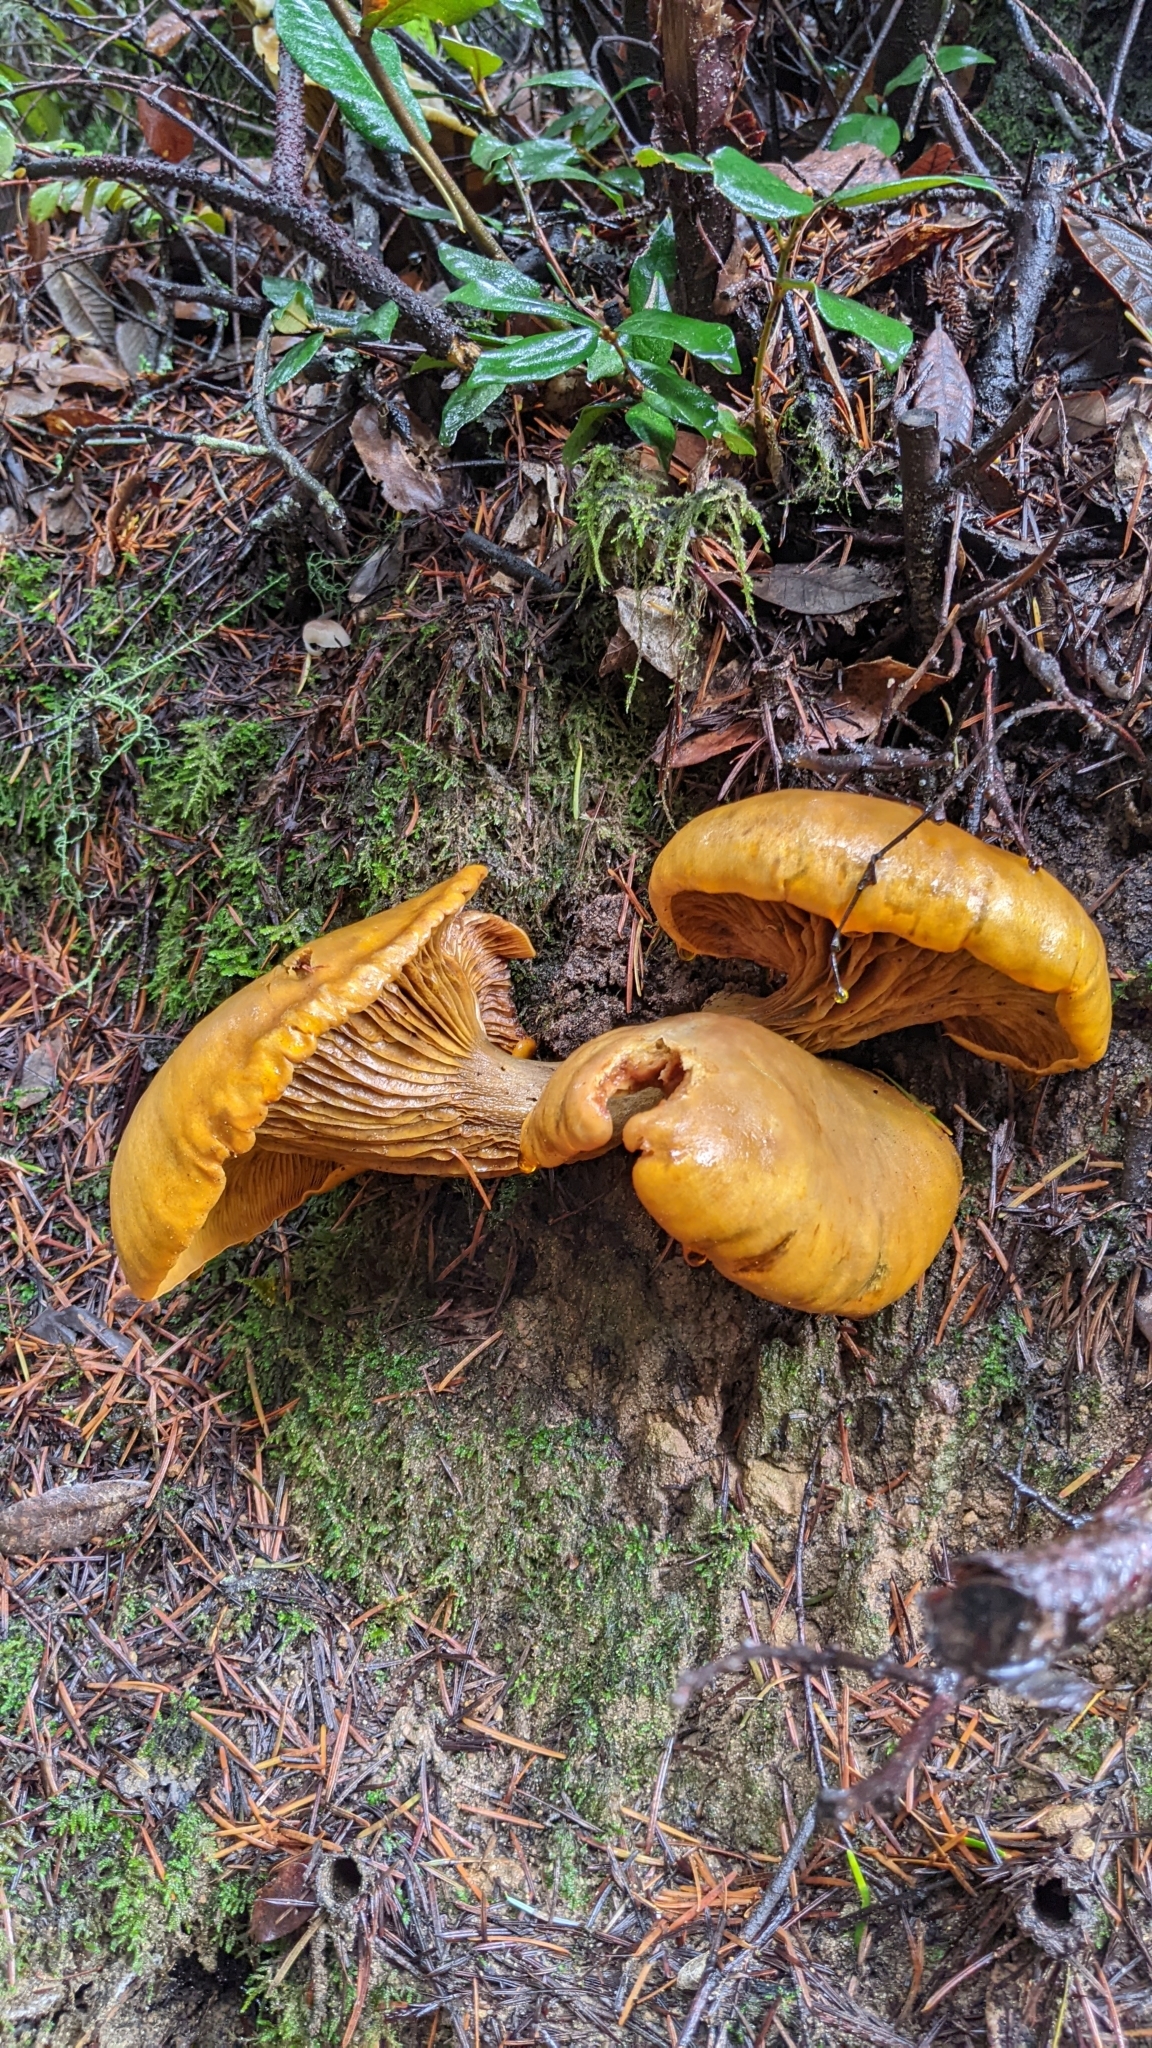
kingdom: Fungi
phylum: Basidiomycota
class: Agaricomycetes
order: Agaricales
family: Omphalotaceae
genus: Omphalotus
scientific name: Omphalotus olivascens
